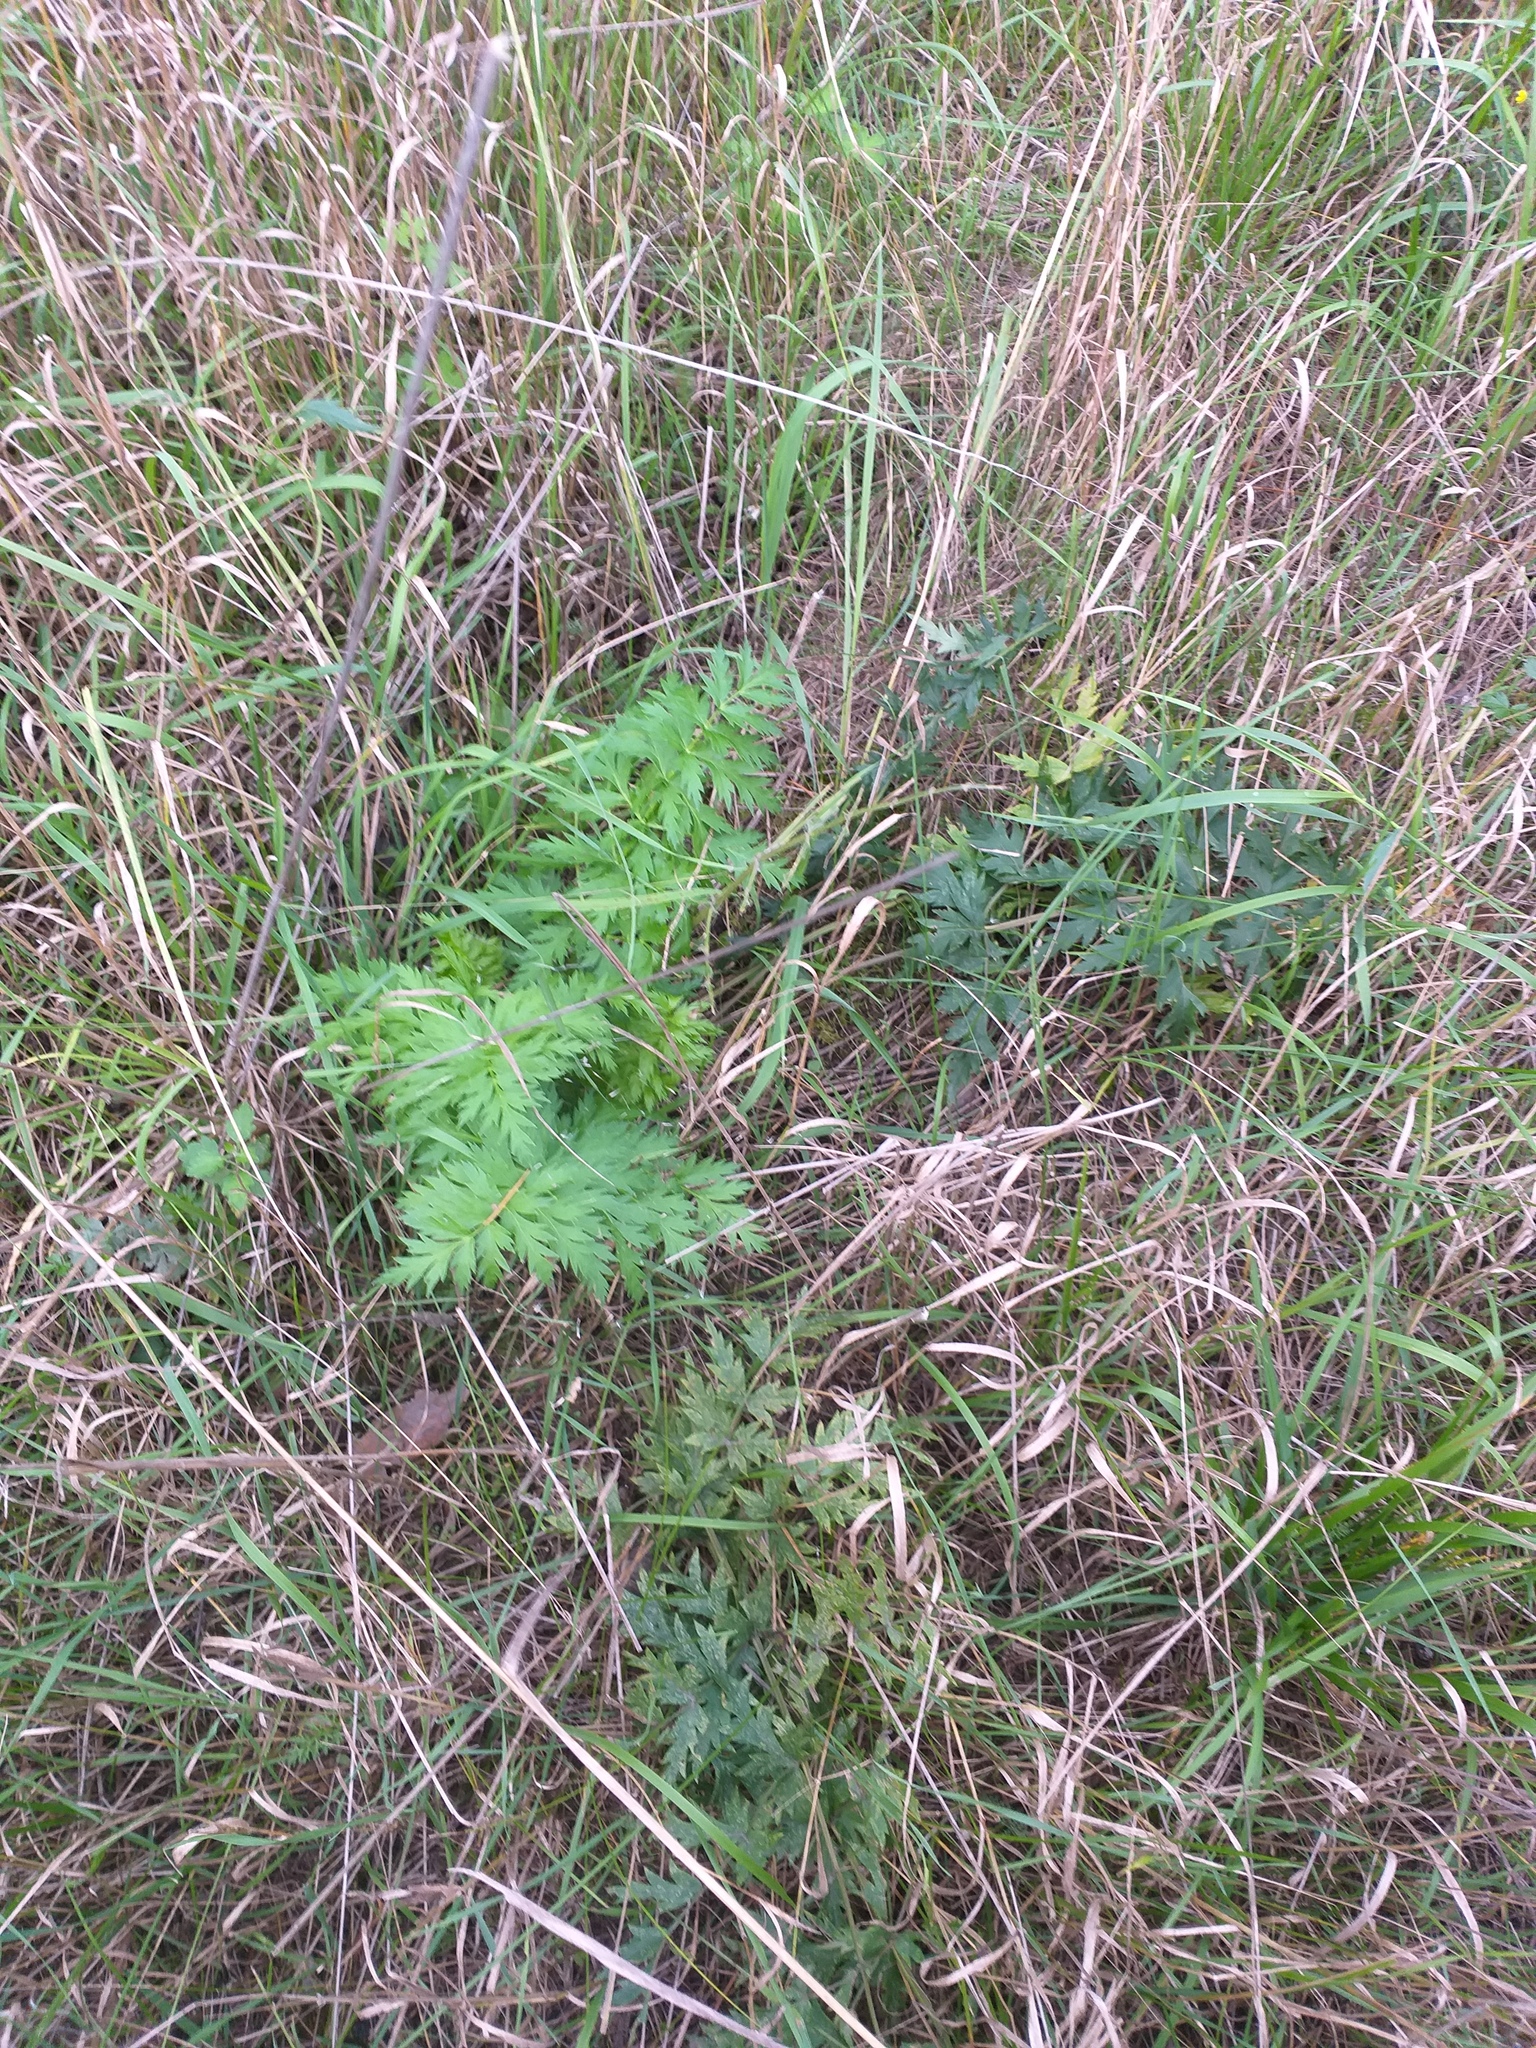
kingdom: Plantae
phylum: Tracheophyta
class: Magnoliopsida
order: Apiales
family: Apiaceae
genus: Seseli
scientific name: Seseli libanotis
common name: Mooncarrot
